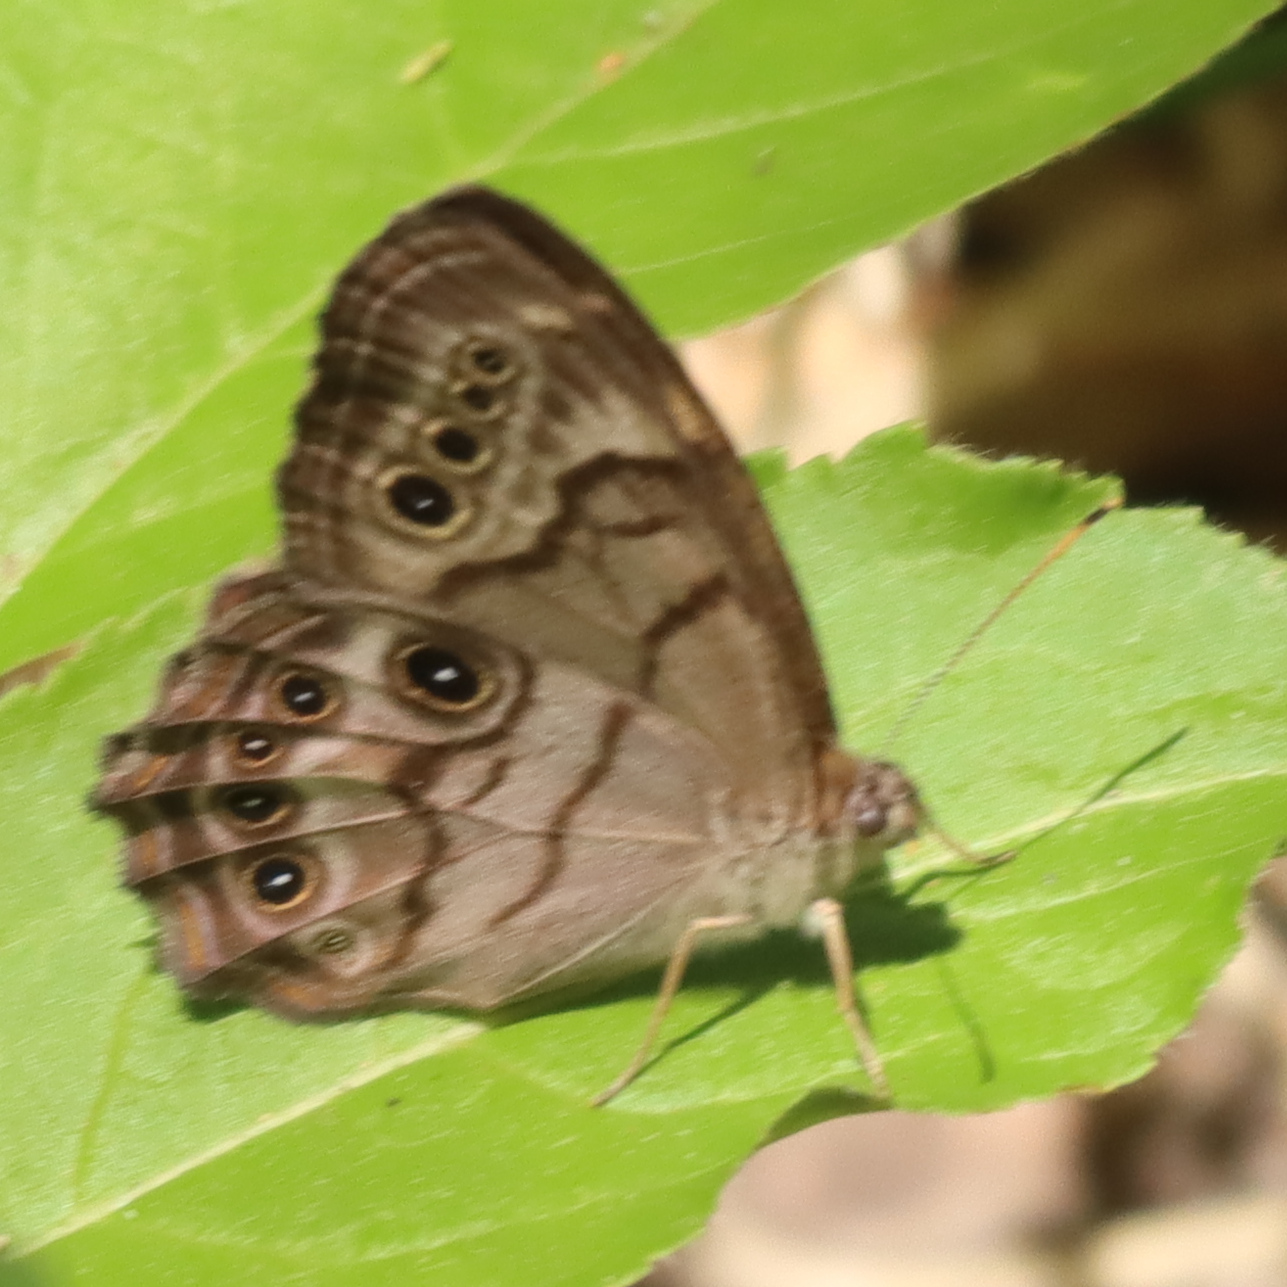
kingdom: Animalia
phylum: Arthropoda
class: Insecta
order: Lepidoptera
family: Nymphalidae
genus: Lethe
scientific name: Lethe anthedon
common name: Northern pearly-eye
